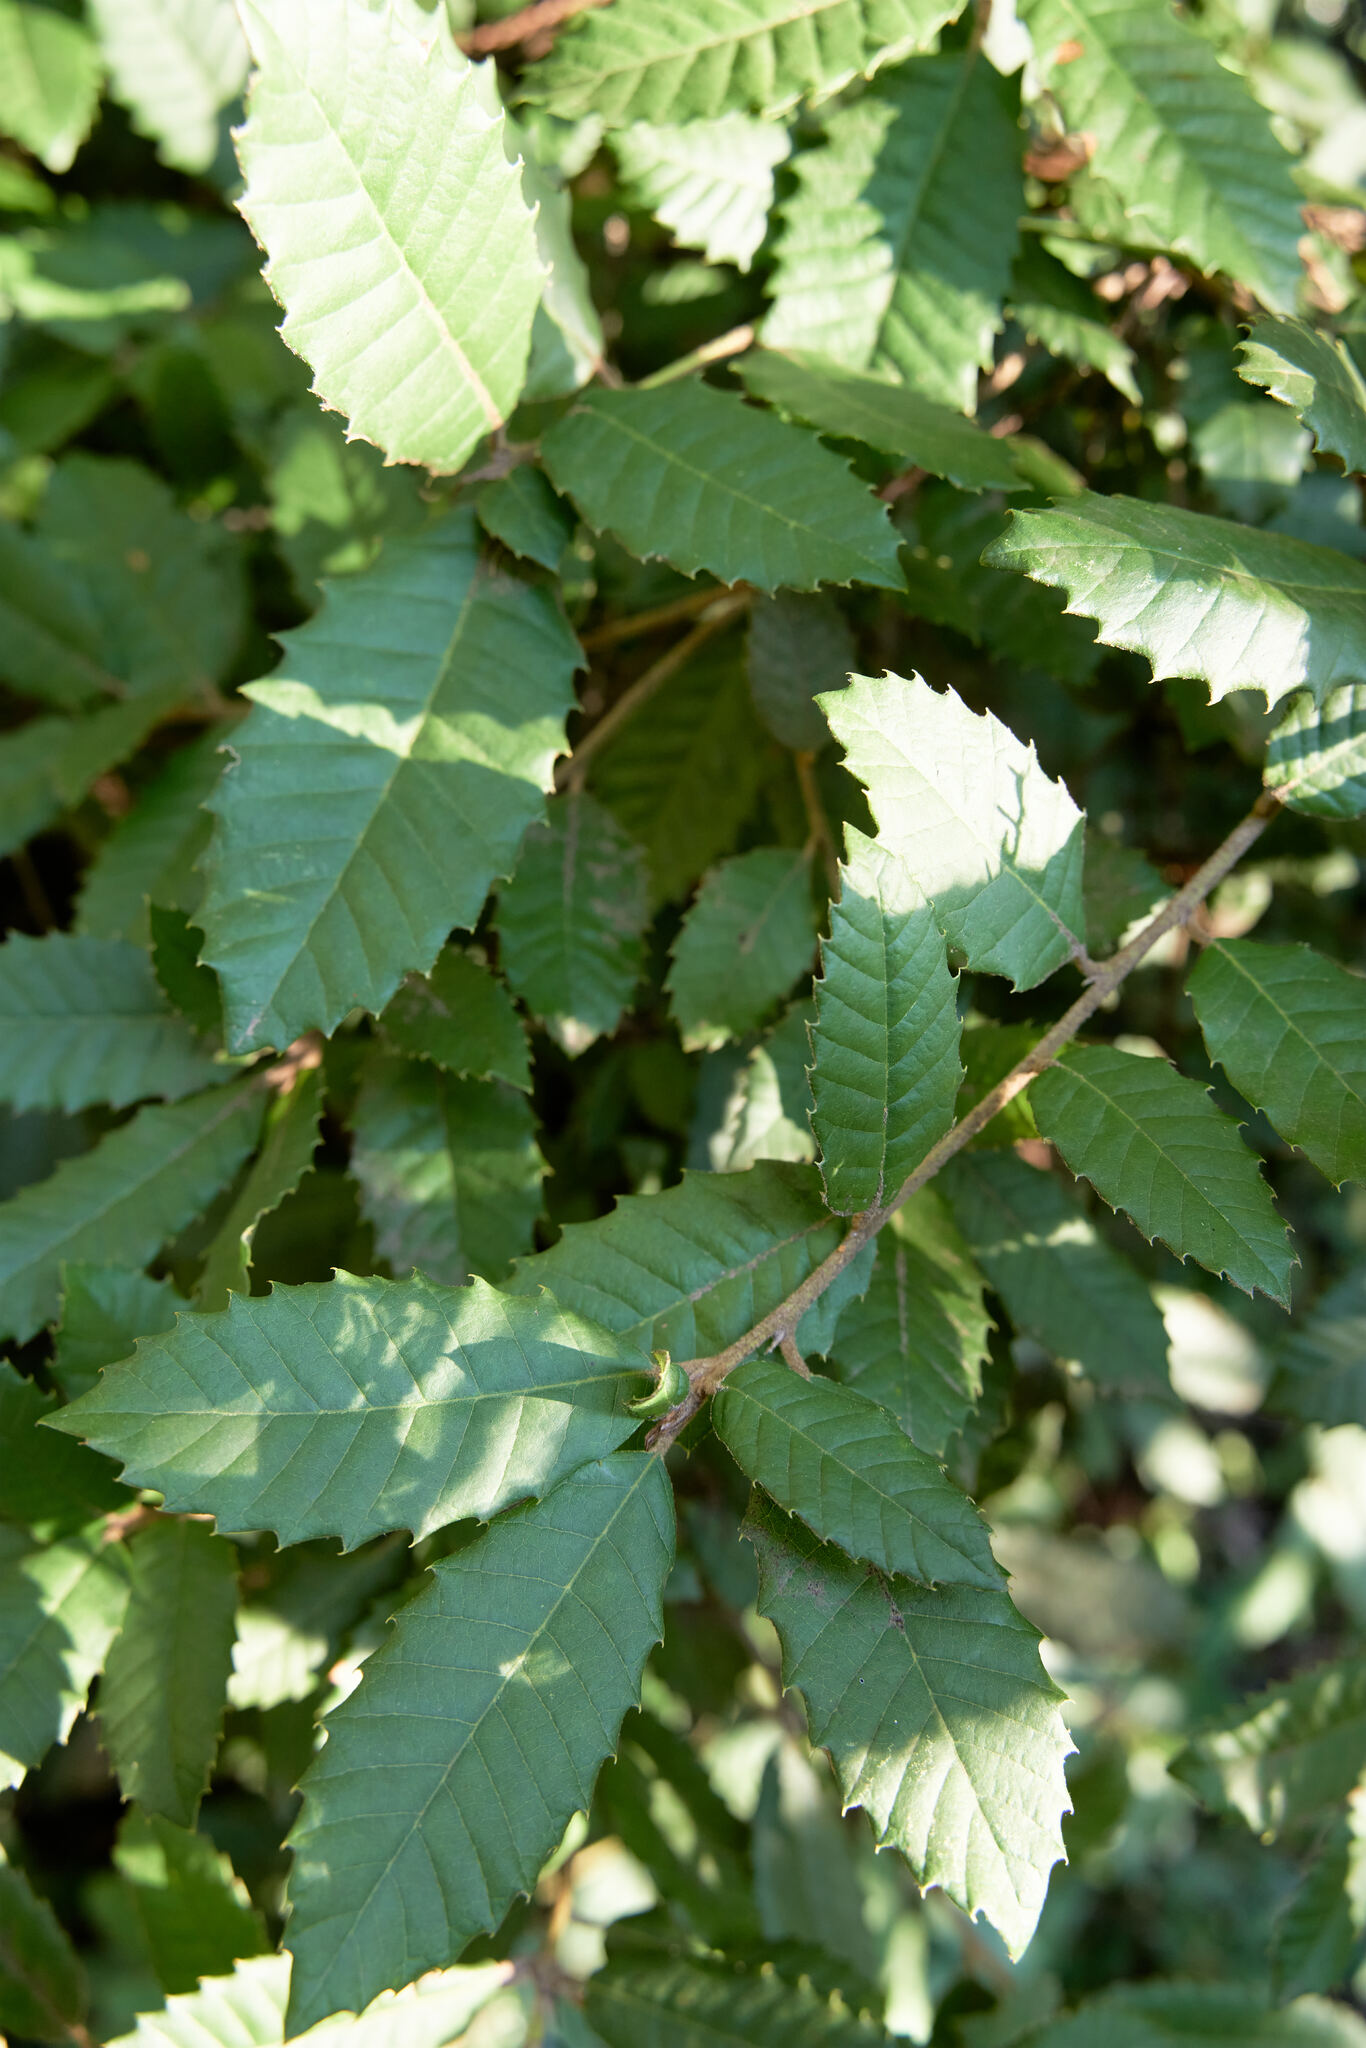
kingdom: Plantae
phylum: Tracheophyta
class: Magnoliopsida
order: Fagales
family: Fagaceae
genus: Notholithocarpus
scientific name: Notholithocarpus densiflorus
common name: Tan bark oak
